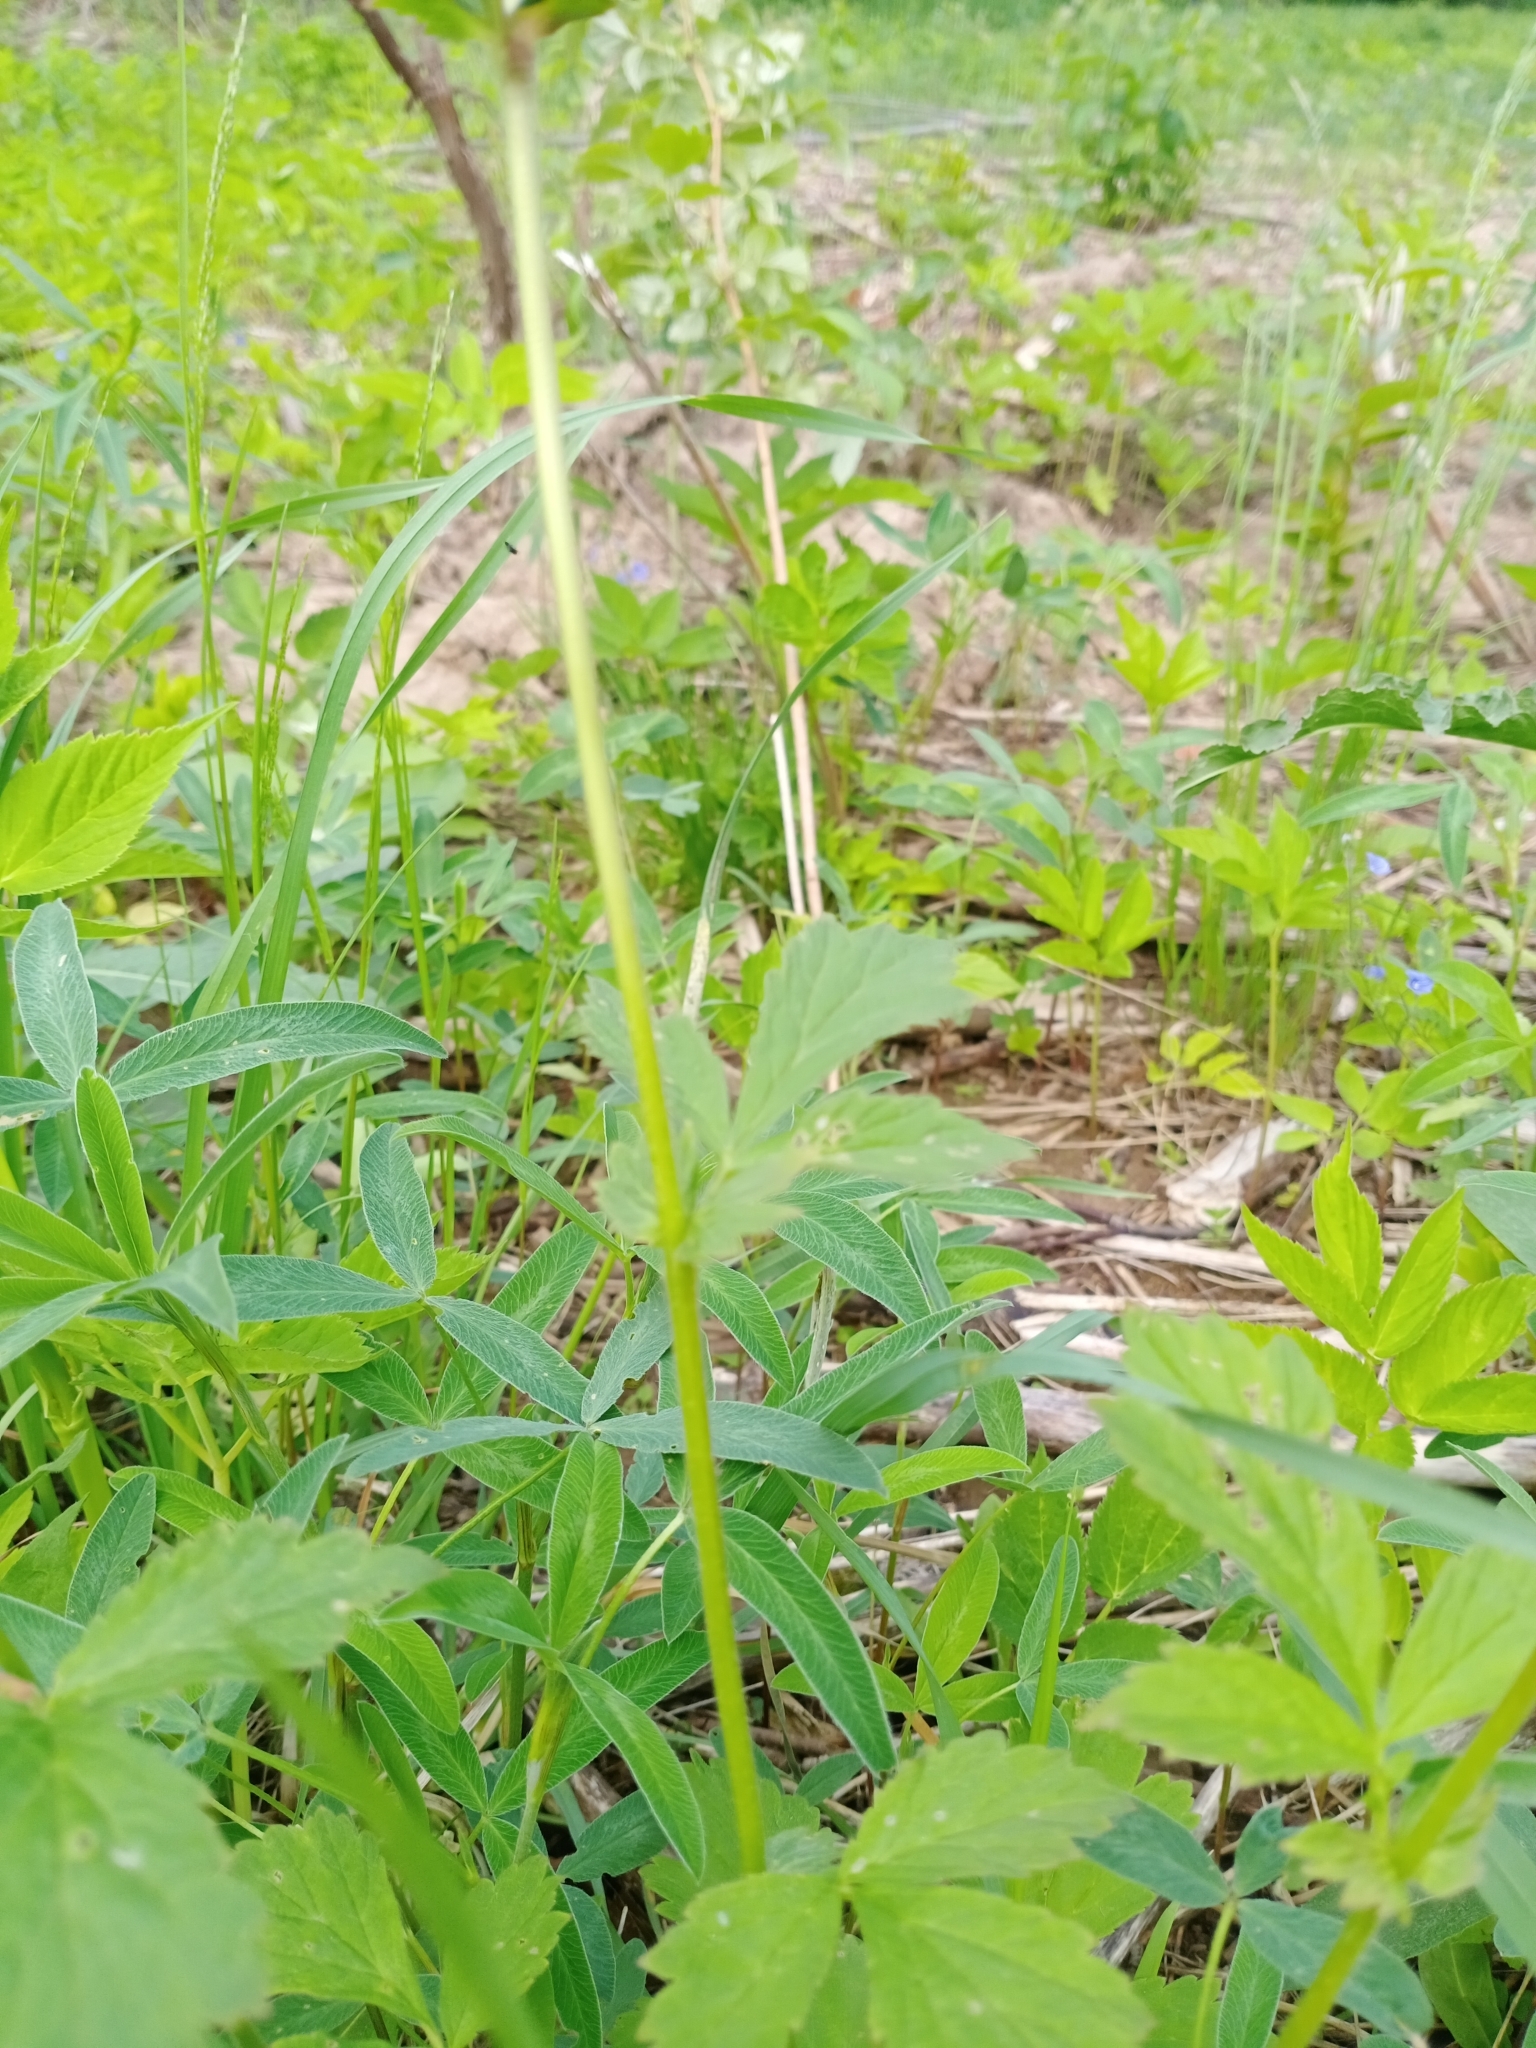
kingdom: Plantae
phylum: Tracheophyta
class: Magnoliopsida
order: Rosales
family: Rosaceae
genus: Geum
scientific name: Geum intermedium
